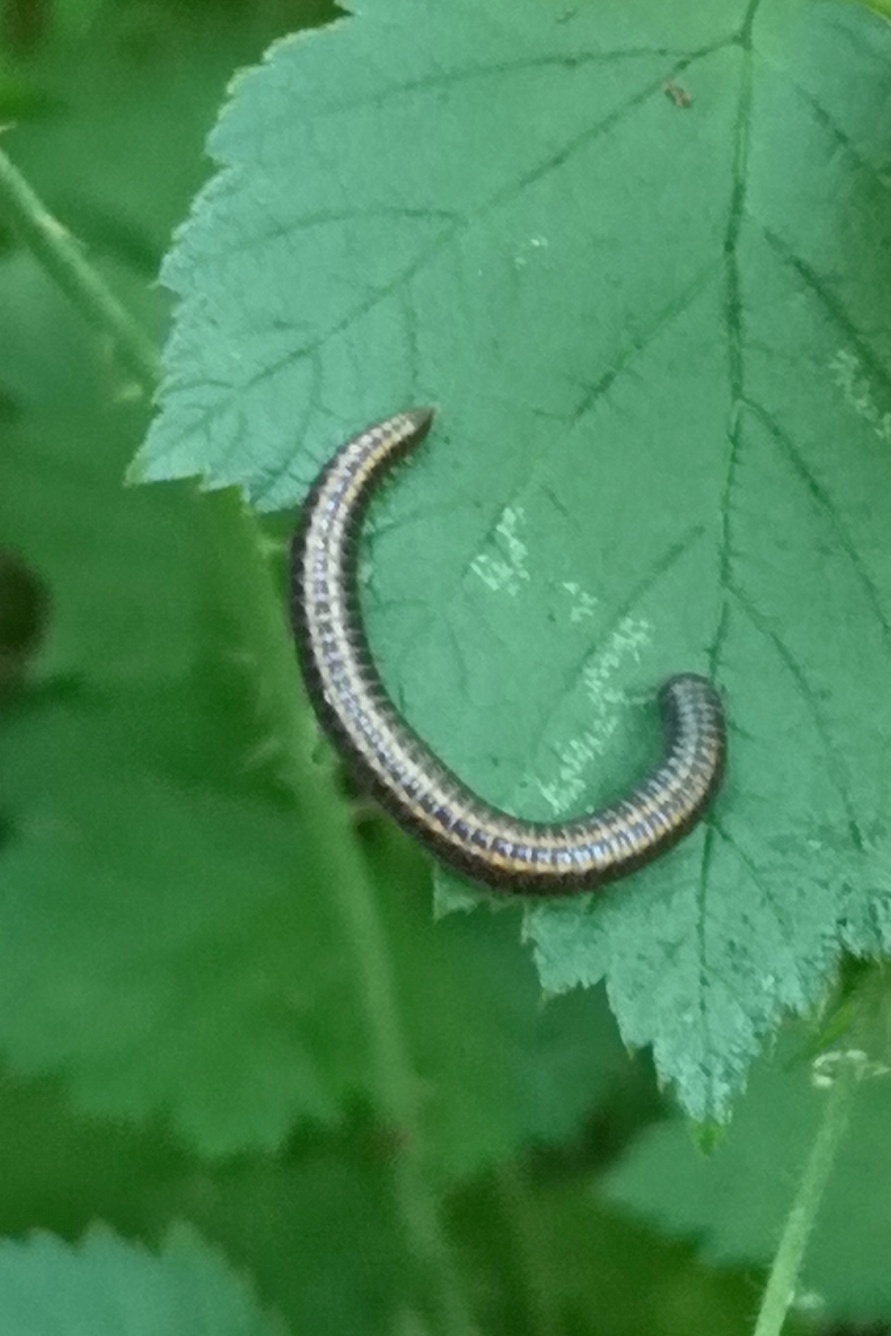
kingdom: Animalia
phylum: Arthropoda
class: Diplopoda
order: Julida
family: Julidae
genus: Ommatoiulus
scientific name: Ommatoiulus sabulosus
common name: Striped millipede
